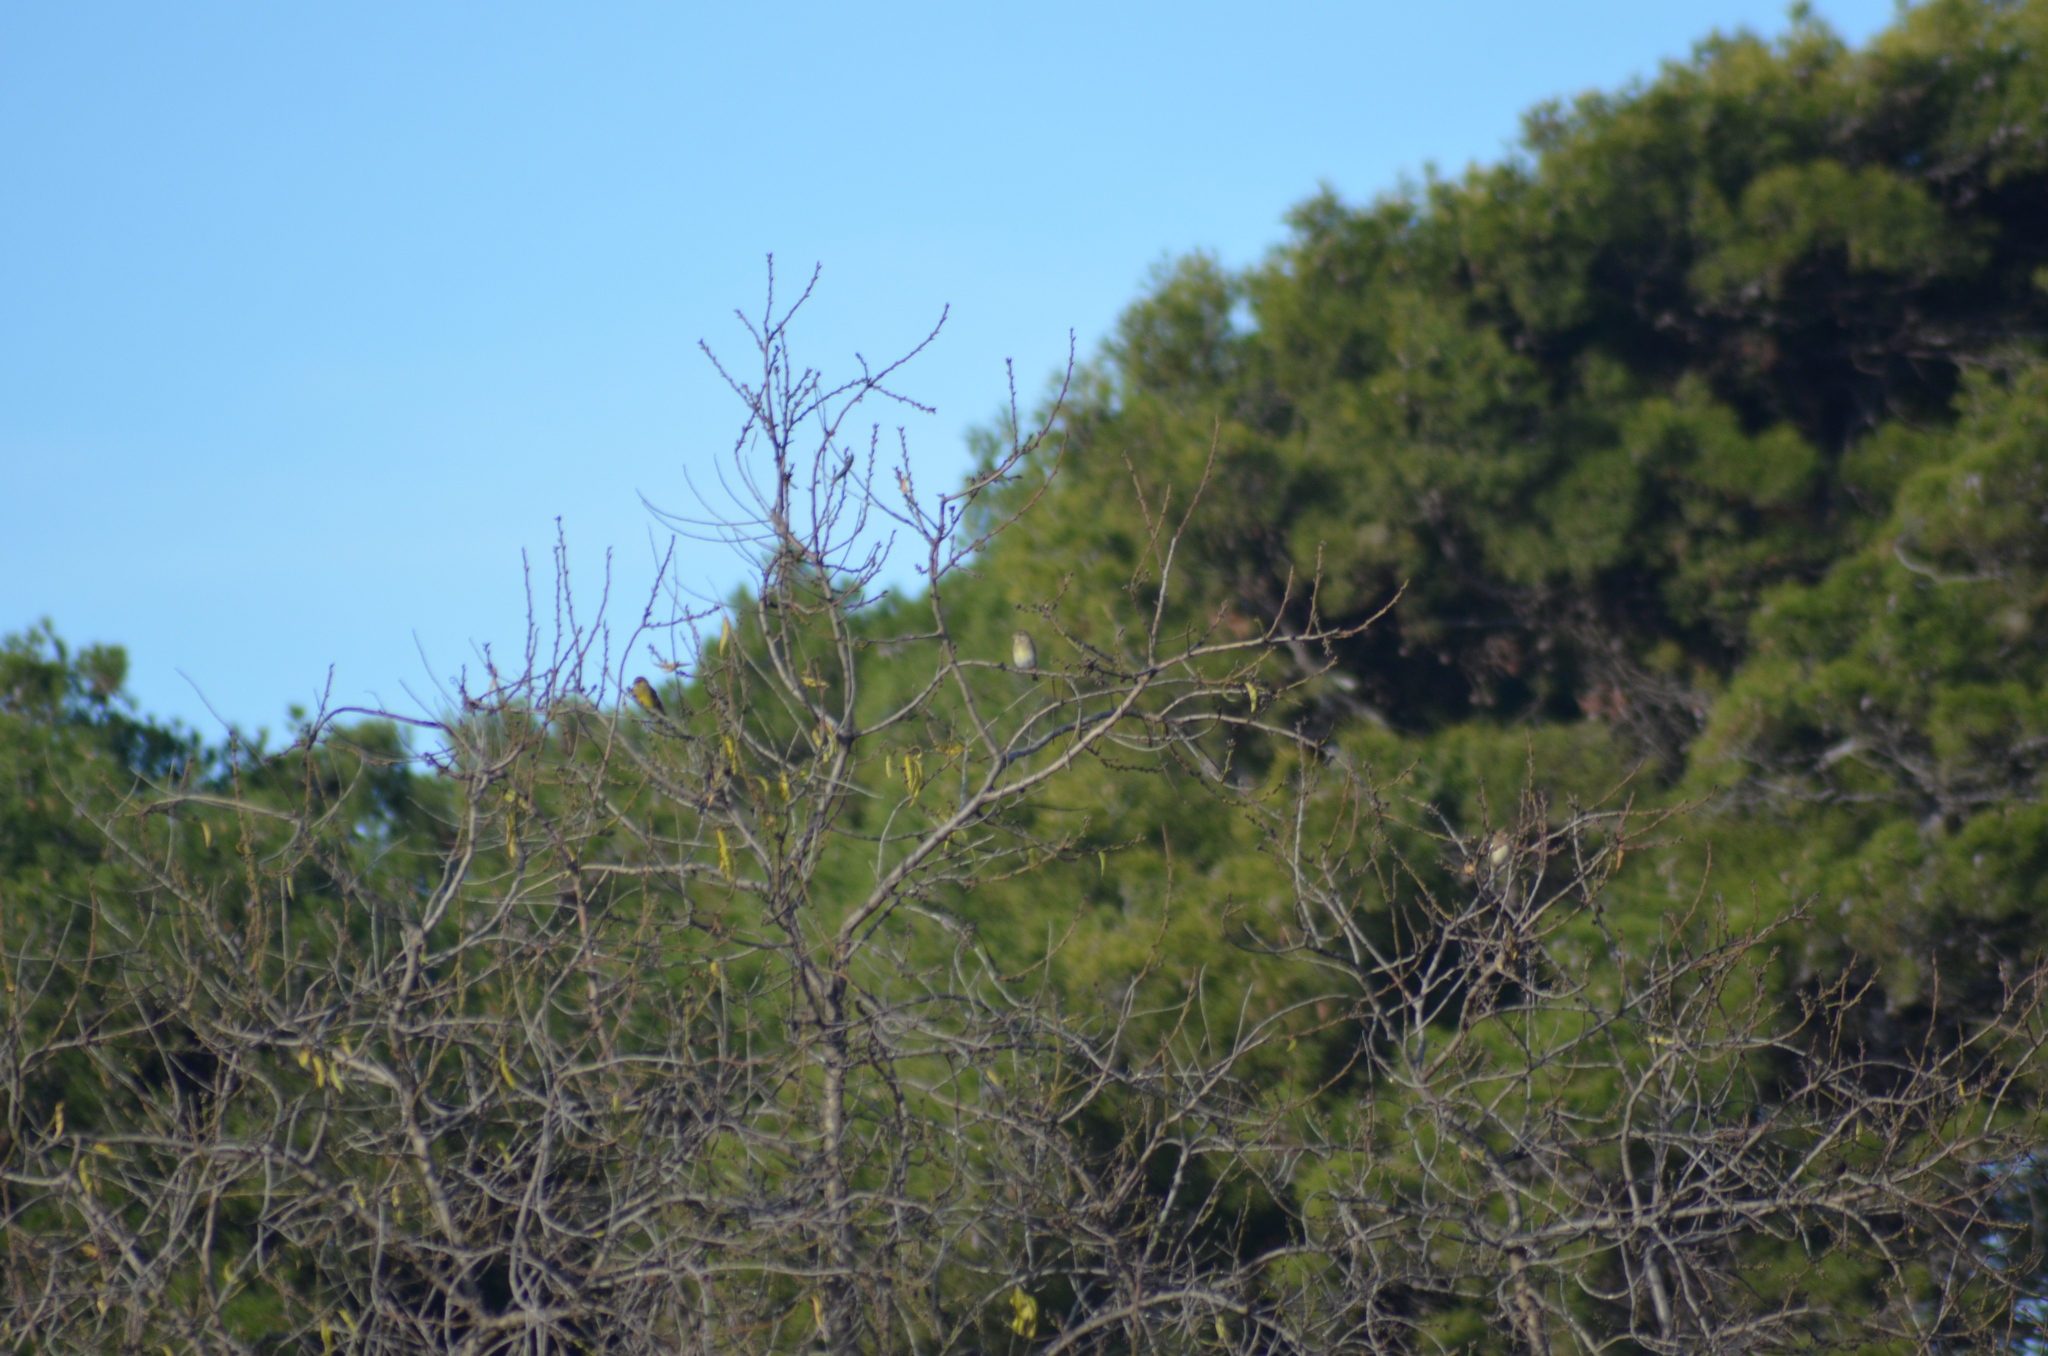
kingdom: Animalia
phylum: Chordata
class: Aves
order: Passeriformes
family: Fringillidae
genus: Serinus
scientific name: Serinus serinus
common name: European serin
